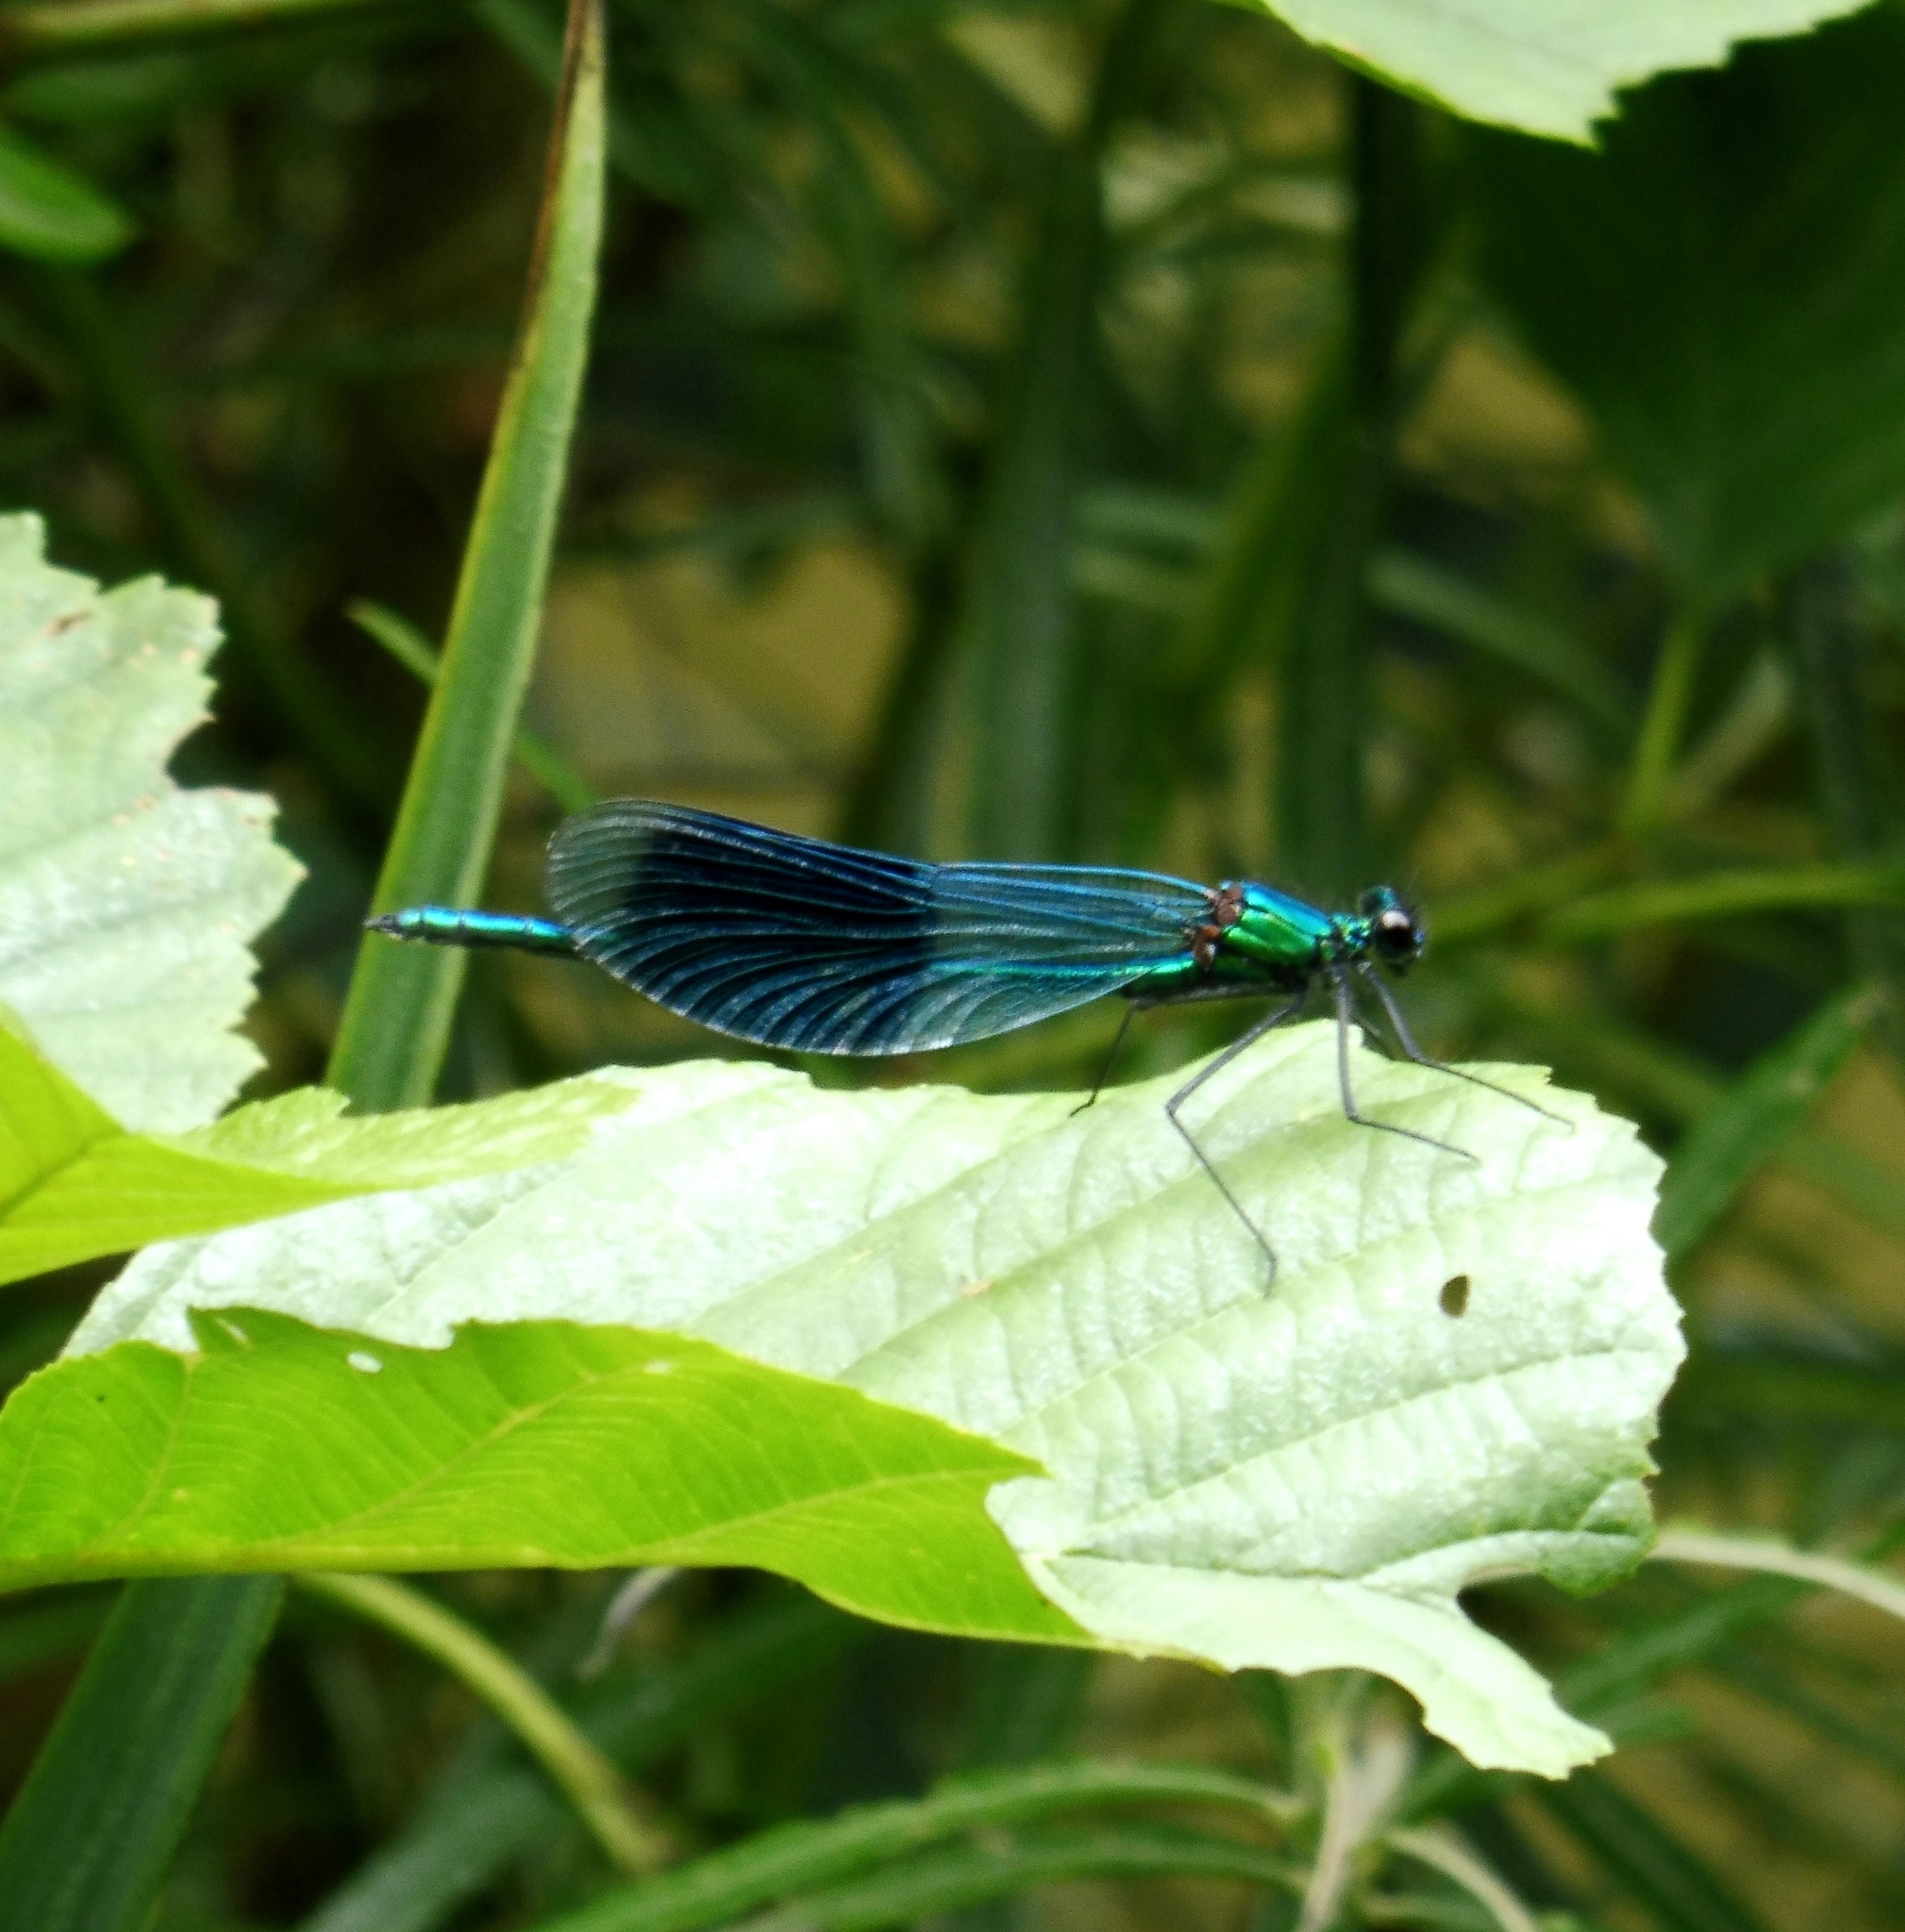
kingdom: Animalia
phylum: Arthropoda
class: Insecta
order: Odonata
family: Calopterygidae
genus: Calopteryx
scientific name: Calopteryx splendens
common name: Banded demoiselle
